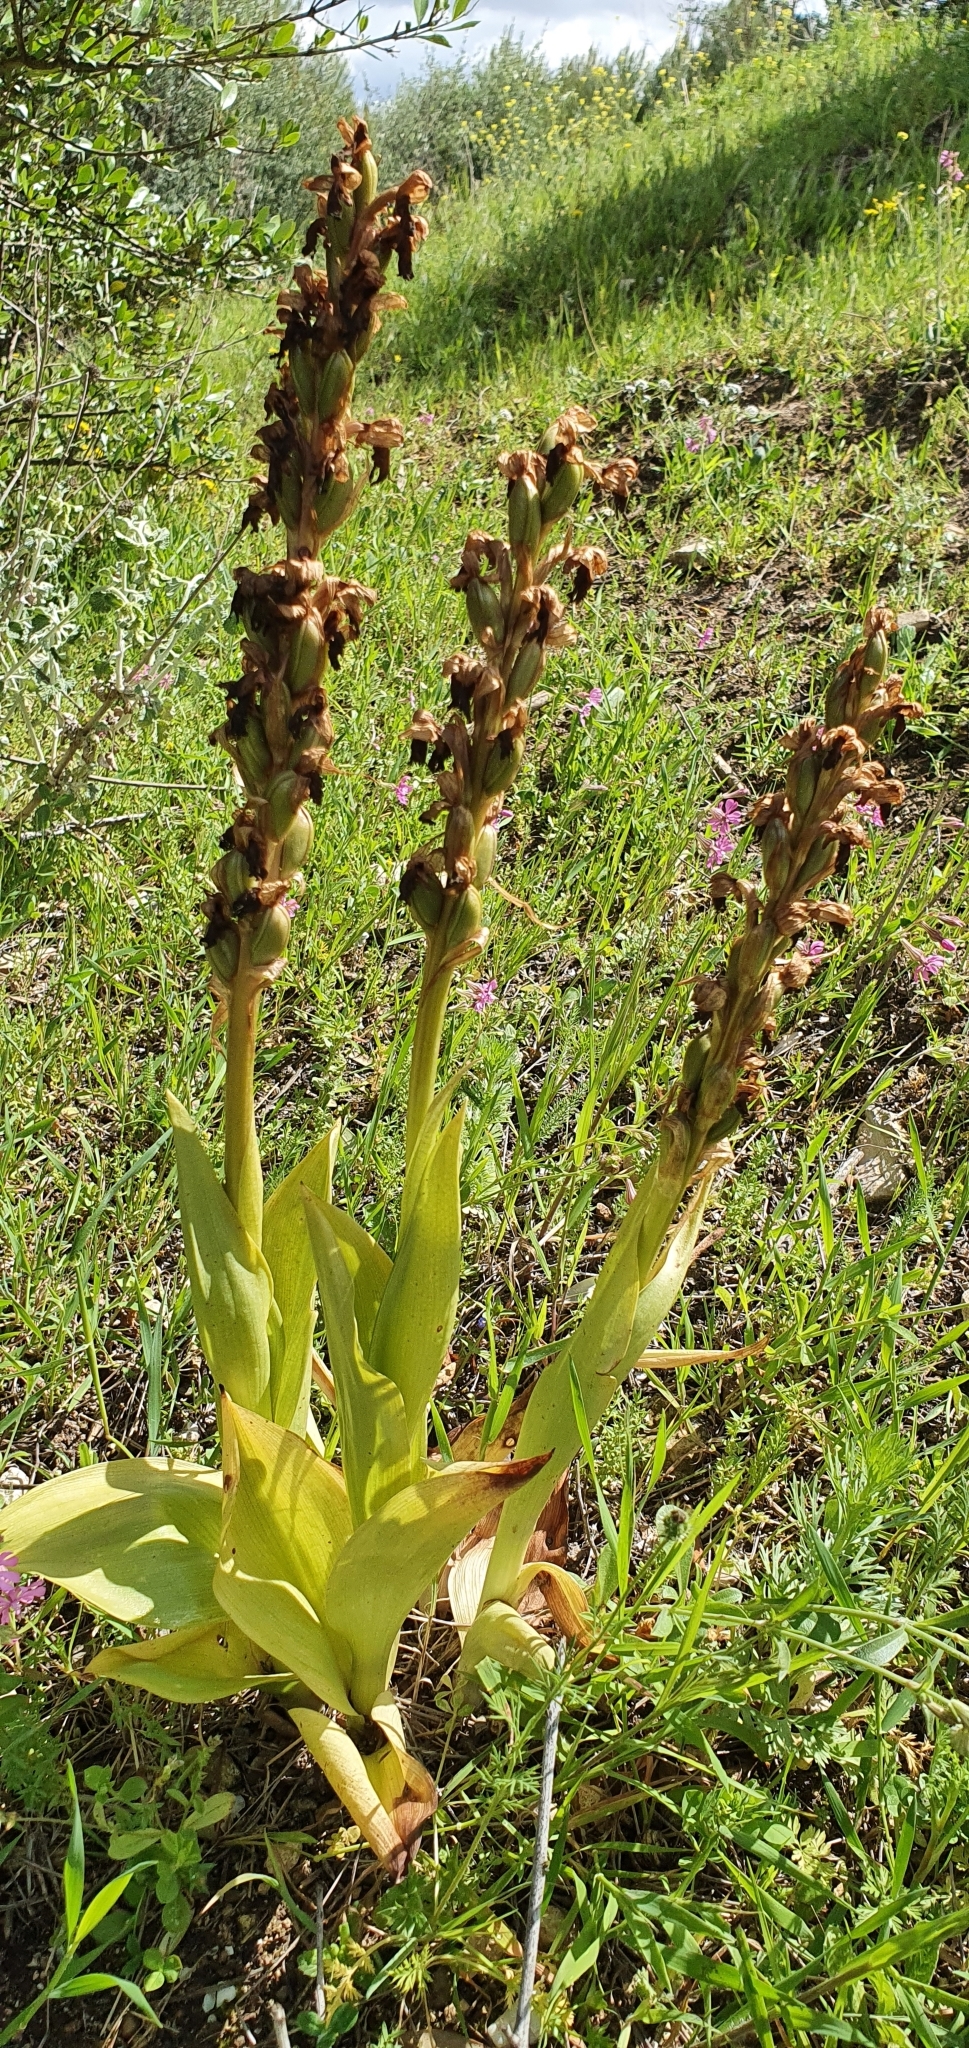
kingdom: Plantae
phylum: Tracheophyta
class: Liliopsida
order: Asparagales
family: Orchidaceae
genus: Himantoglossum
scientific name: Himantoglossum robertianum
